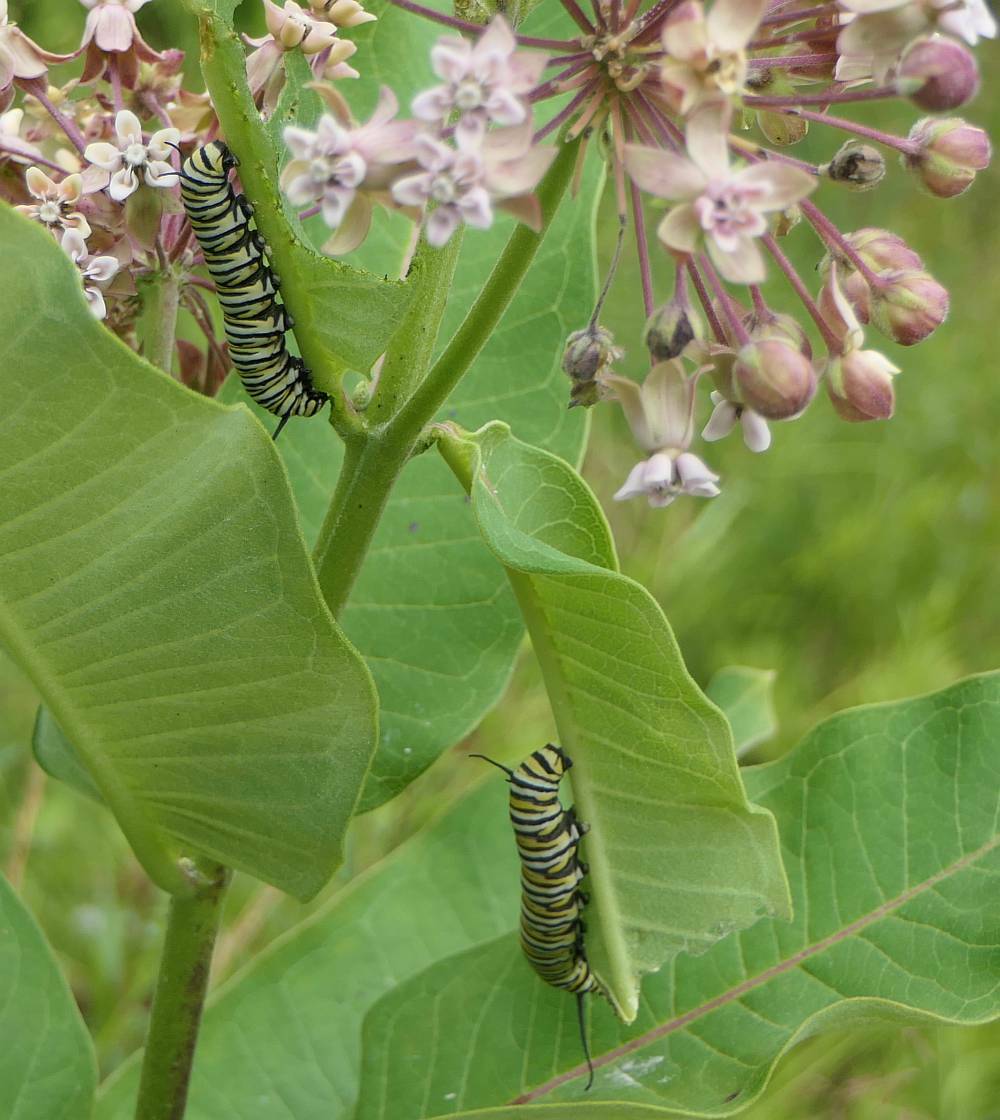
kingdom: Animalia
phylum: Arthropoda
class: Insecta
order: Lepidoptera
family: Nymphalidae
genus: Danaus
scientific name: Danaus plexippus
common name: Monarch
